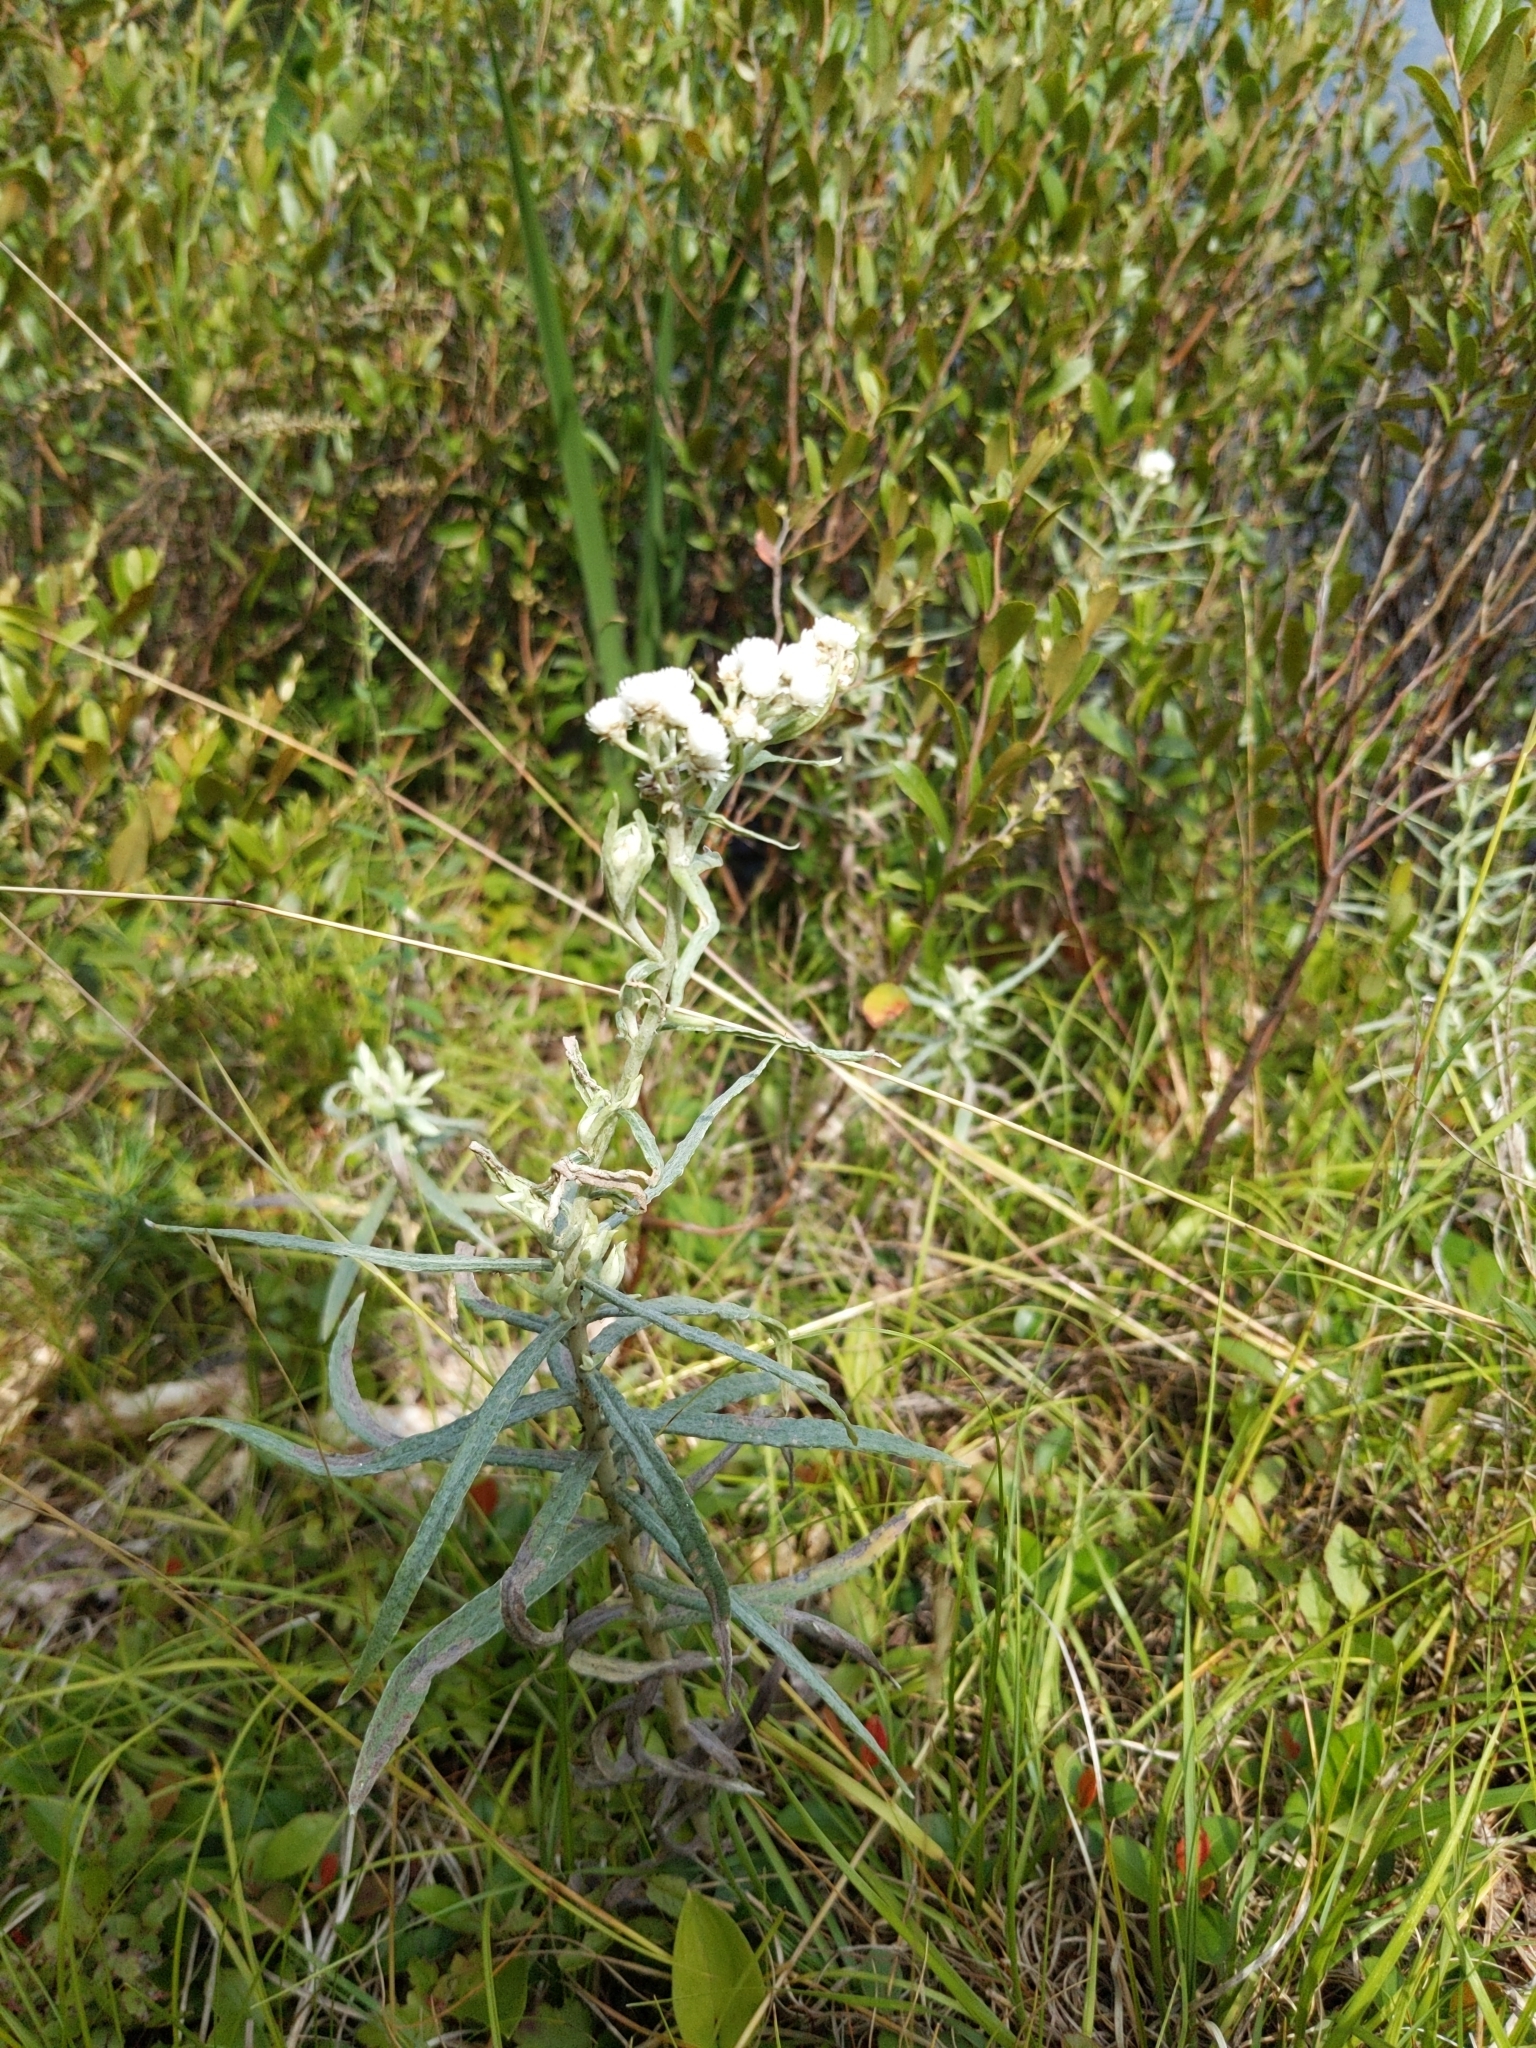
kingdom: Plantae
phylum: Tracheophyta
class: Magnoliopsida
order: Asterales
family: Asteraceae
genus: Anaphalis
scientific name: Anaphalis margaritacea
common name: Pearly everlasting
